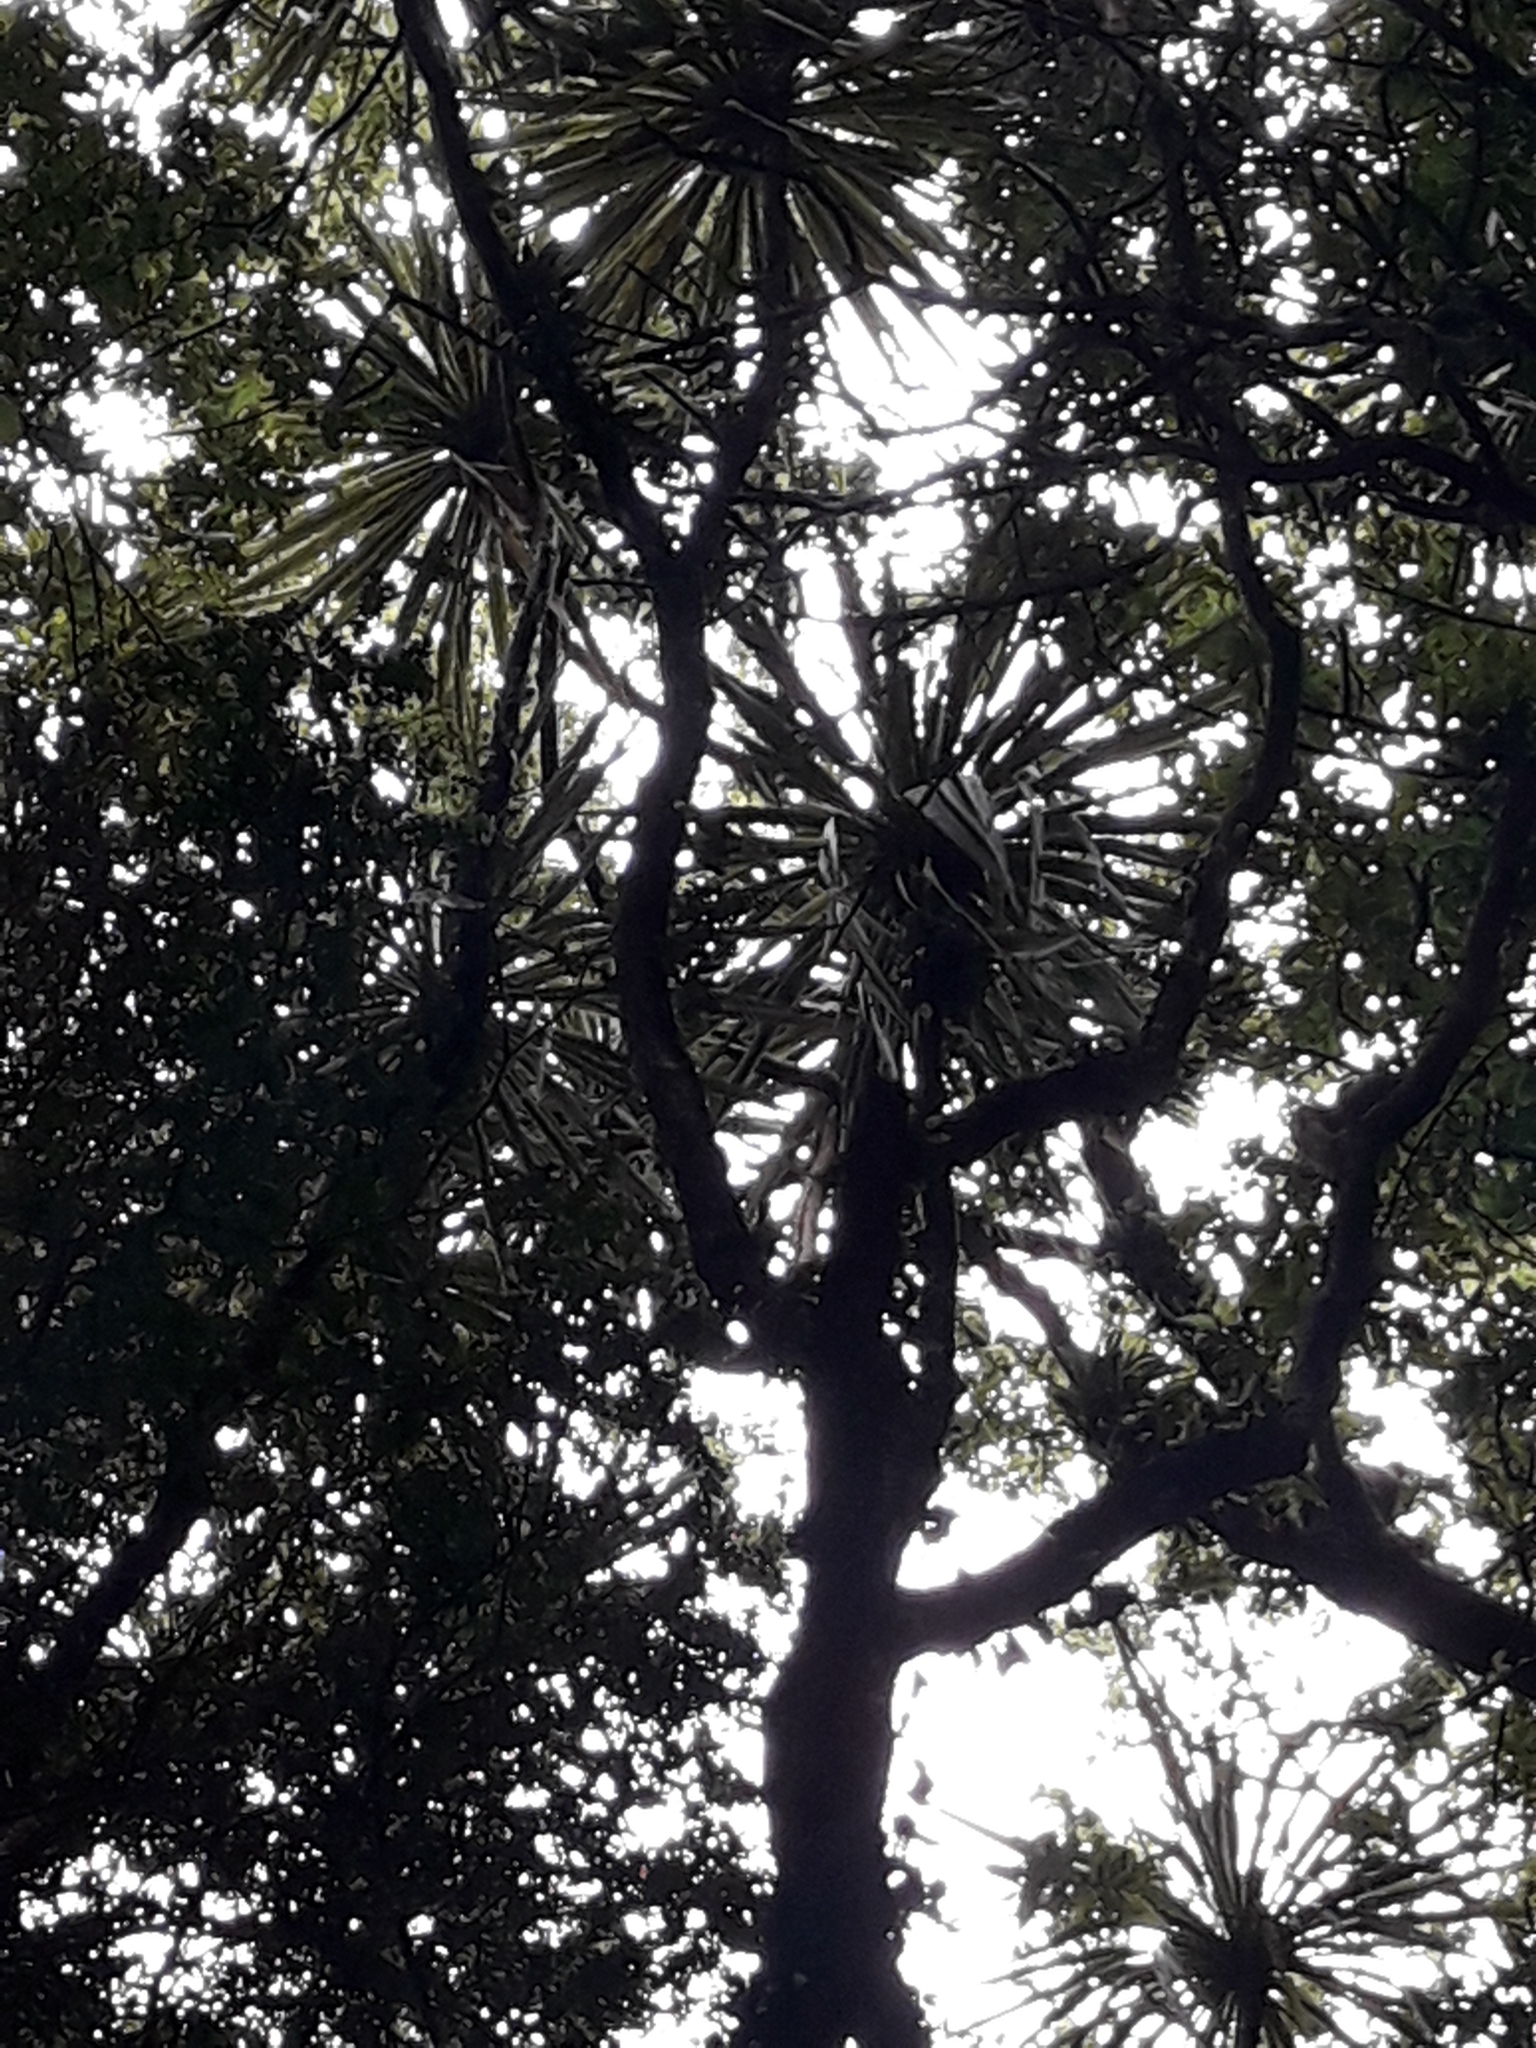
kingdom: Plantae
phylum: Tracheophyta
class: Liliopsida
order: Asparagales
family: Asparagaceae
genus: Cordyline
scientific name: Cordyline australis
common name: Cabbage-palm
